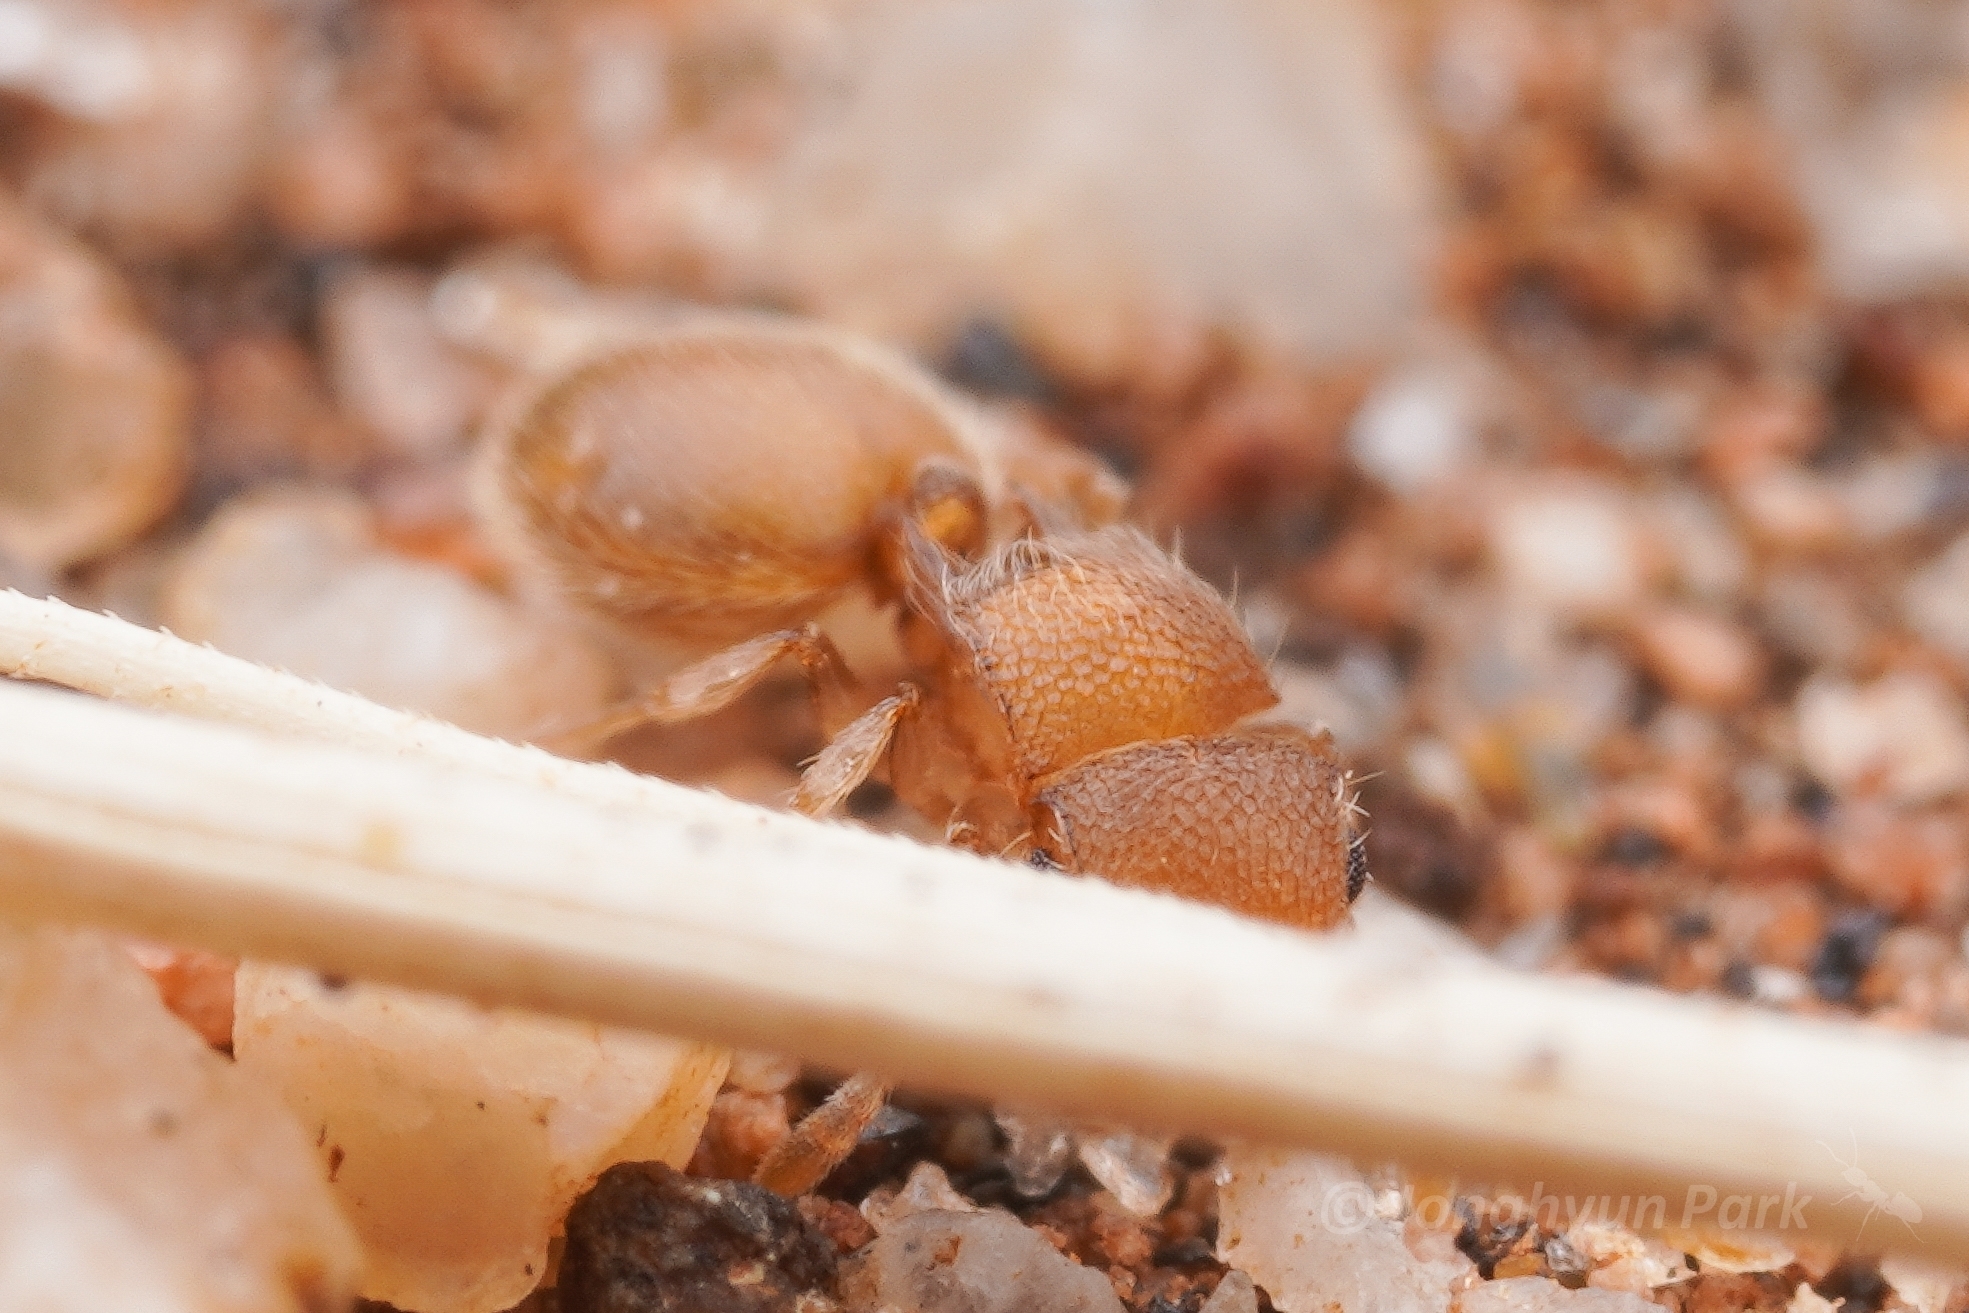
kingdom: Animalia
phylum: Arthropoda
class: Insecta
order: Hymenoptera
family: Formicidae
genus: Meranoplus
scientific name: Meranoplus sthenus
